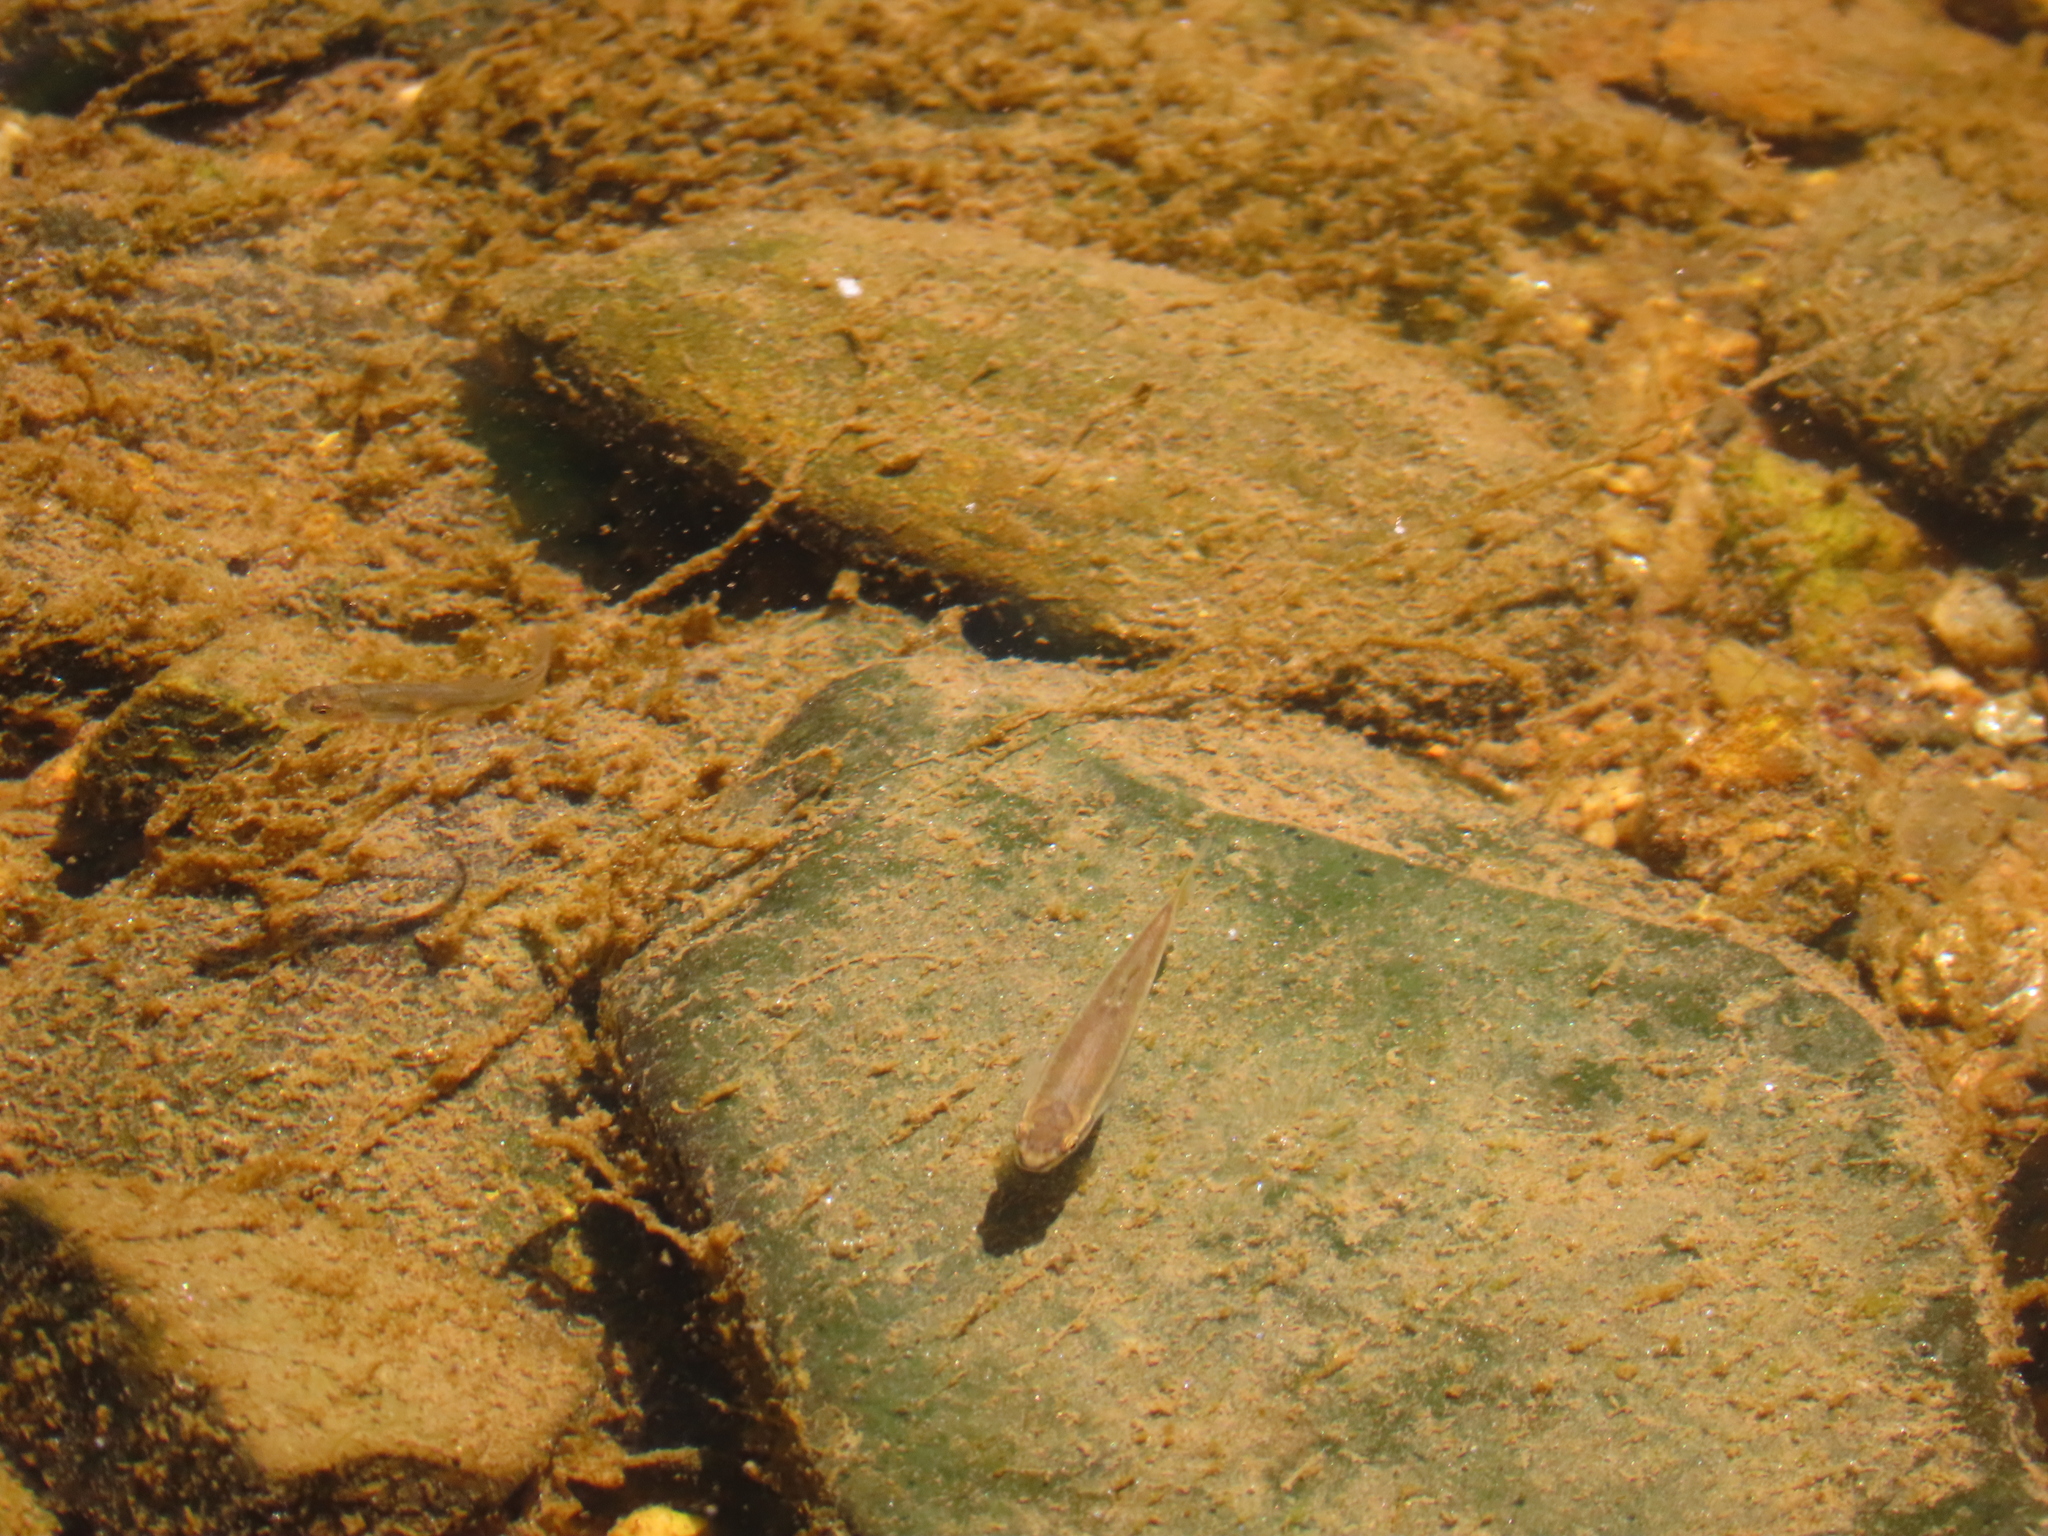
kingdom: Animalia
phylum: Chordata
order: Cypriniformes
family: Cyprinidae
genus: Rhinichthys
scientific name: Rhinichthys atratulus
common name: Eastern blacknose dace
